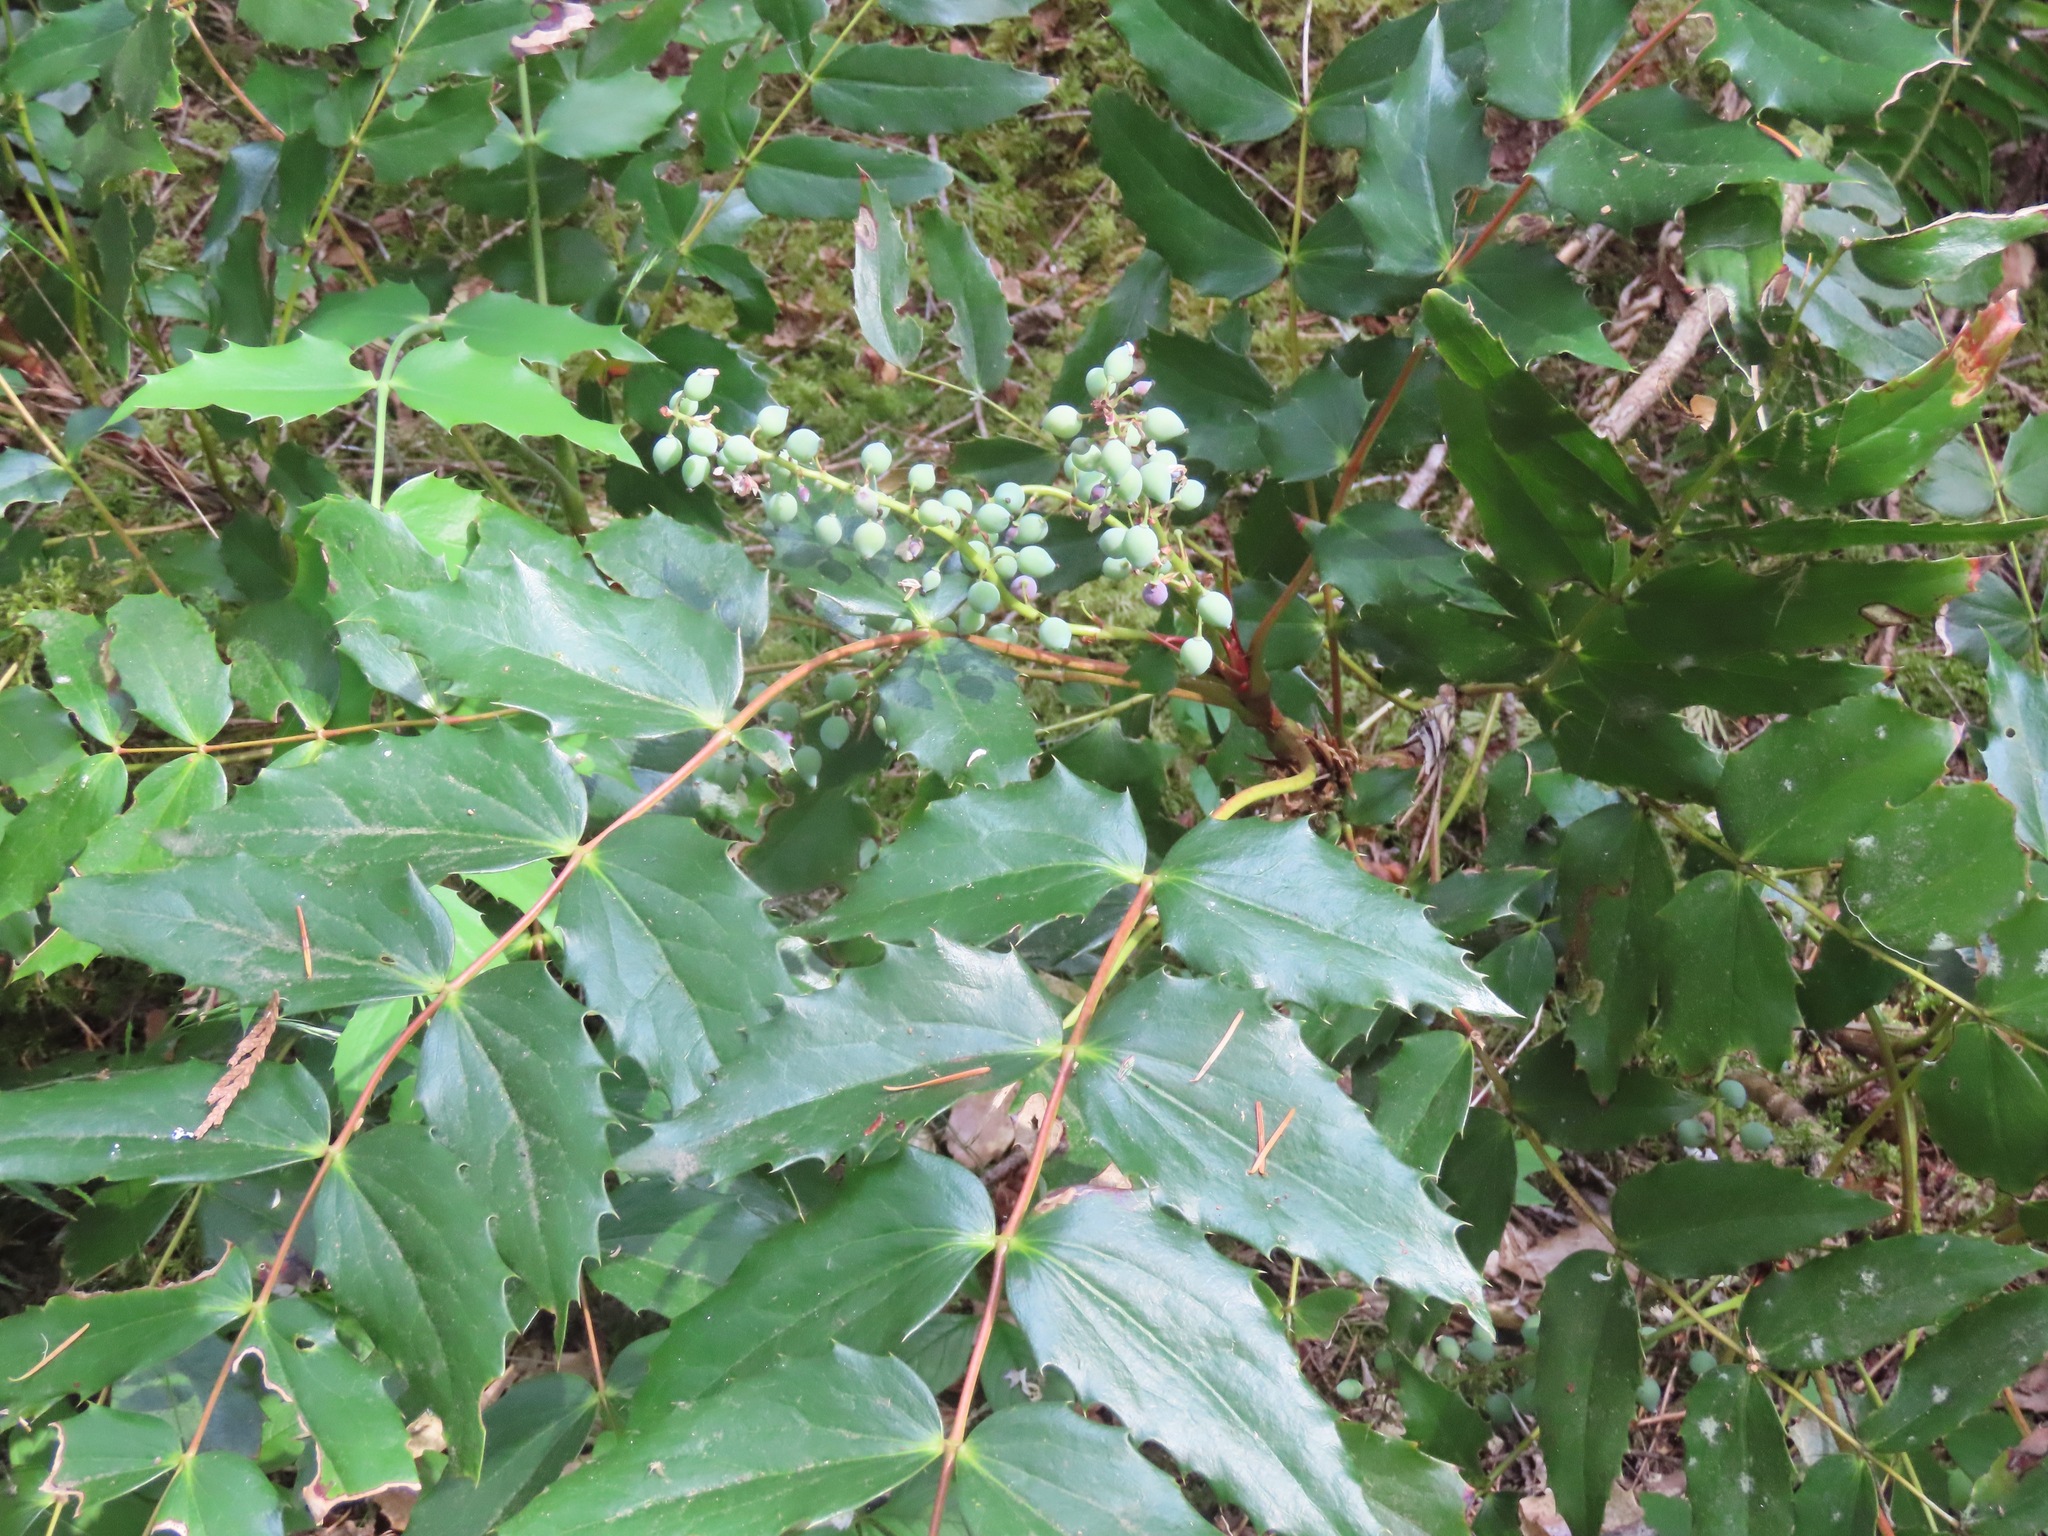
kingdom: Plantae
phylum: Tracheophyta
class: Magnoliopsida
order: Ranunculales
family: Berberidaceae
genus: Mahonia
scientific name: Mahonia nervosa
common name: Cascade oregon-grape
